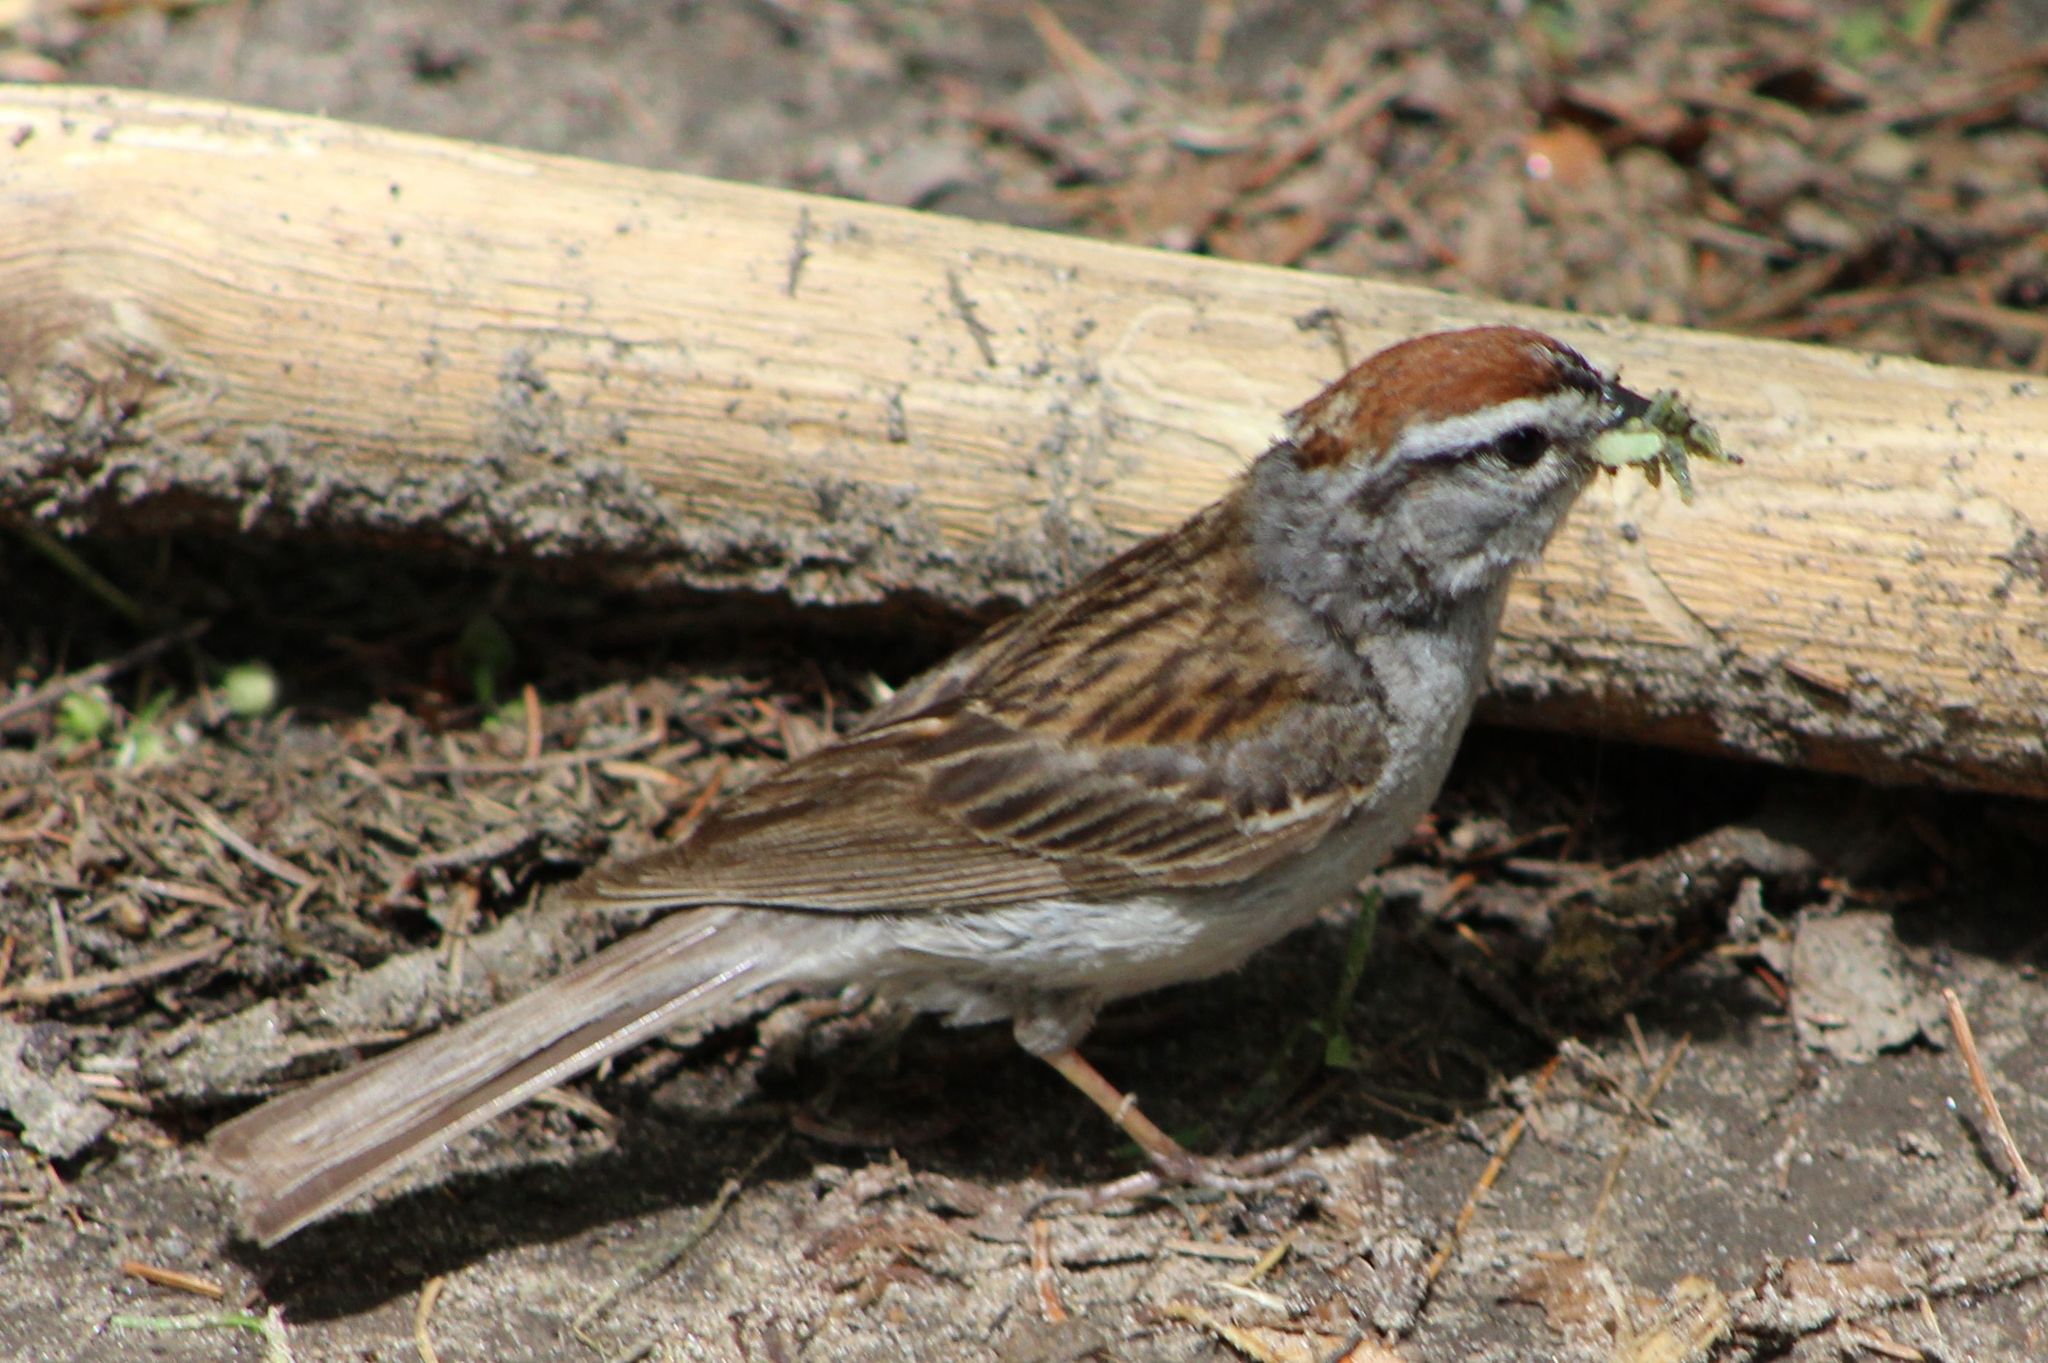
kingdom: Animalia
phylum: Chordata
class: Aves
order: Passeriformes
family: Passerellidae
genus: Spizella
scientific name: Spizella passerina
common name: Chipping sparrow
